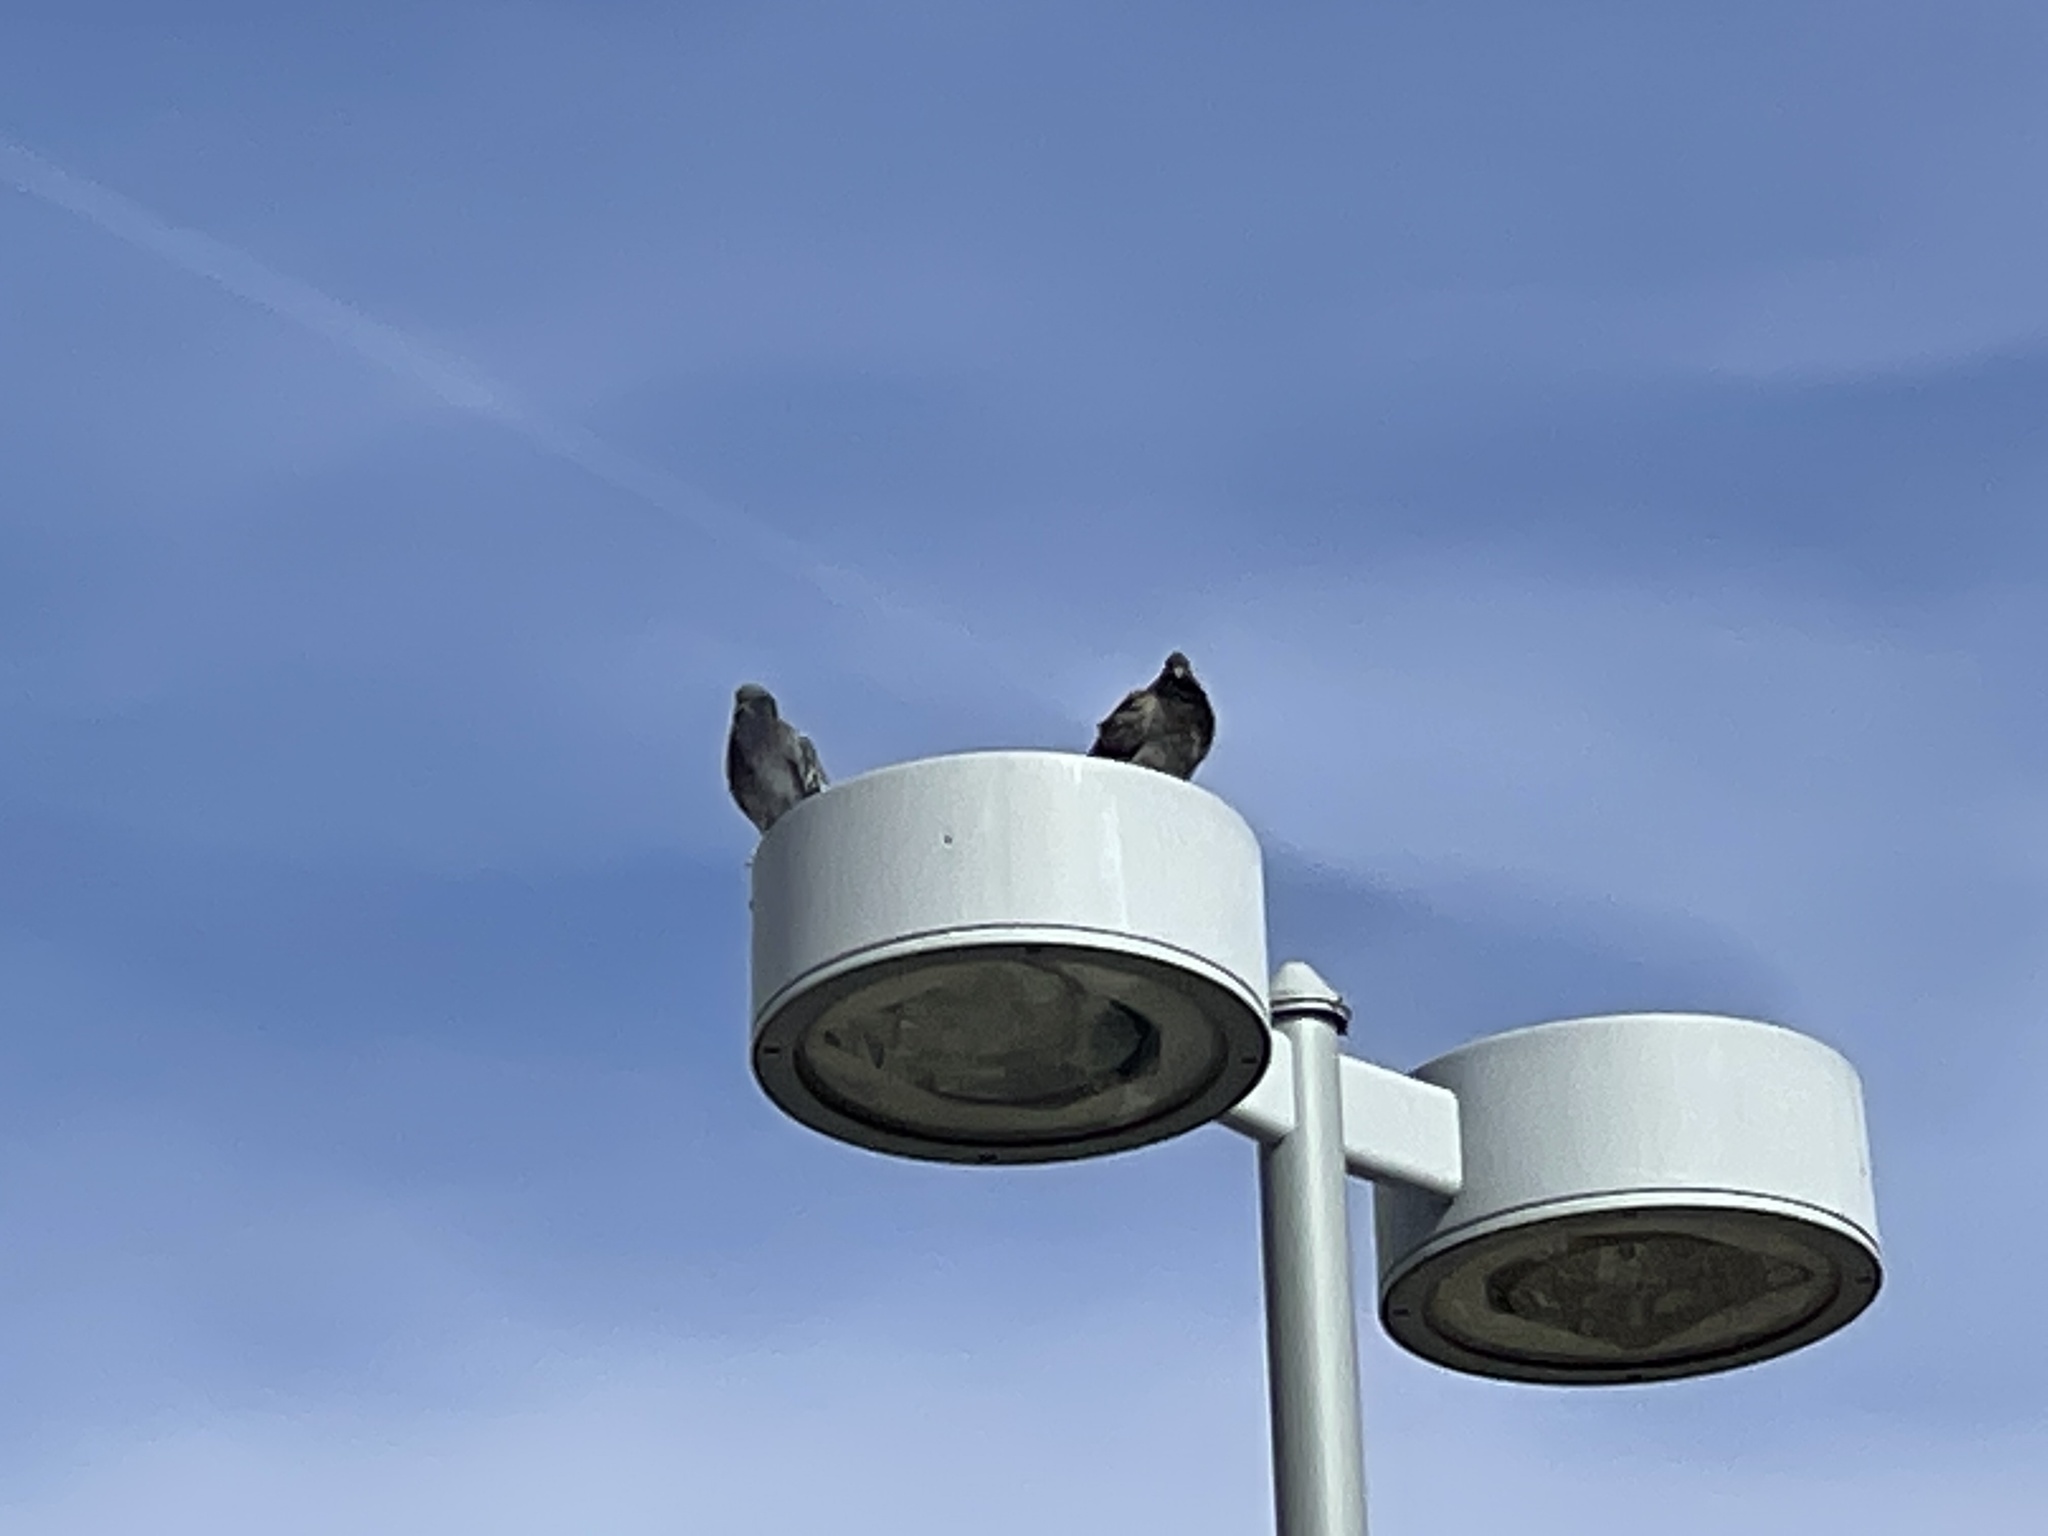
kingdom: Animalia
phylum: Chordata
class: Aves
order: Columbiformes
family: Columbidae
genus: Columba
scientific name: Columba livia
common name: Rock pigeon
